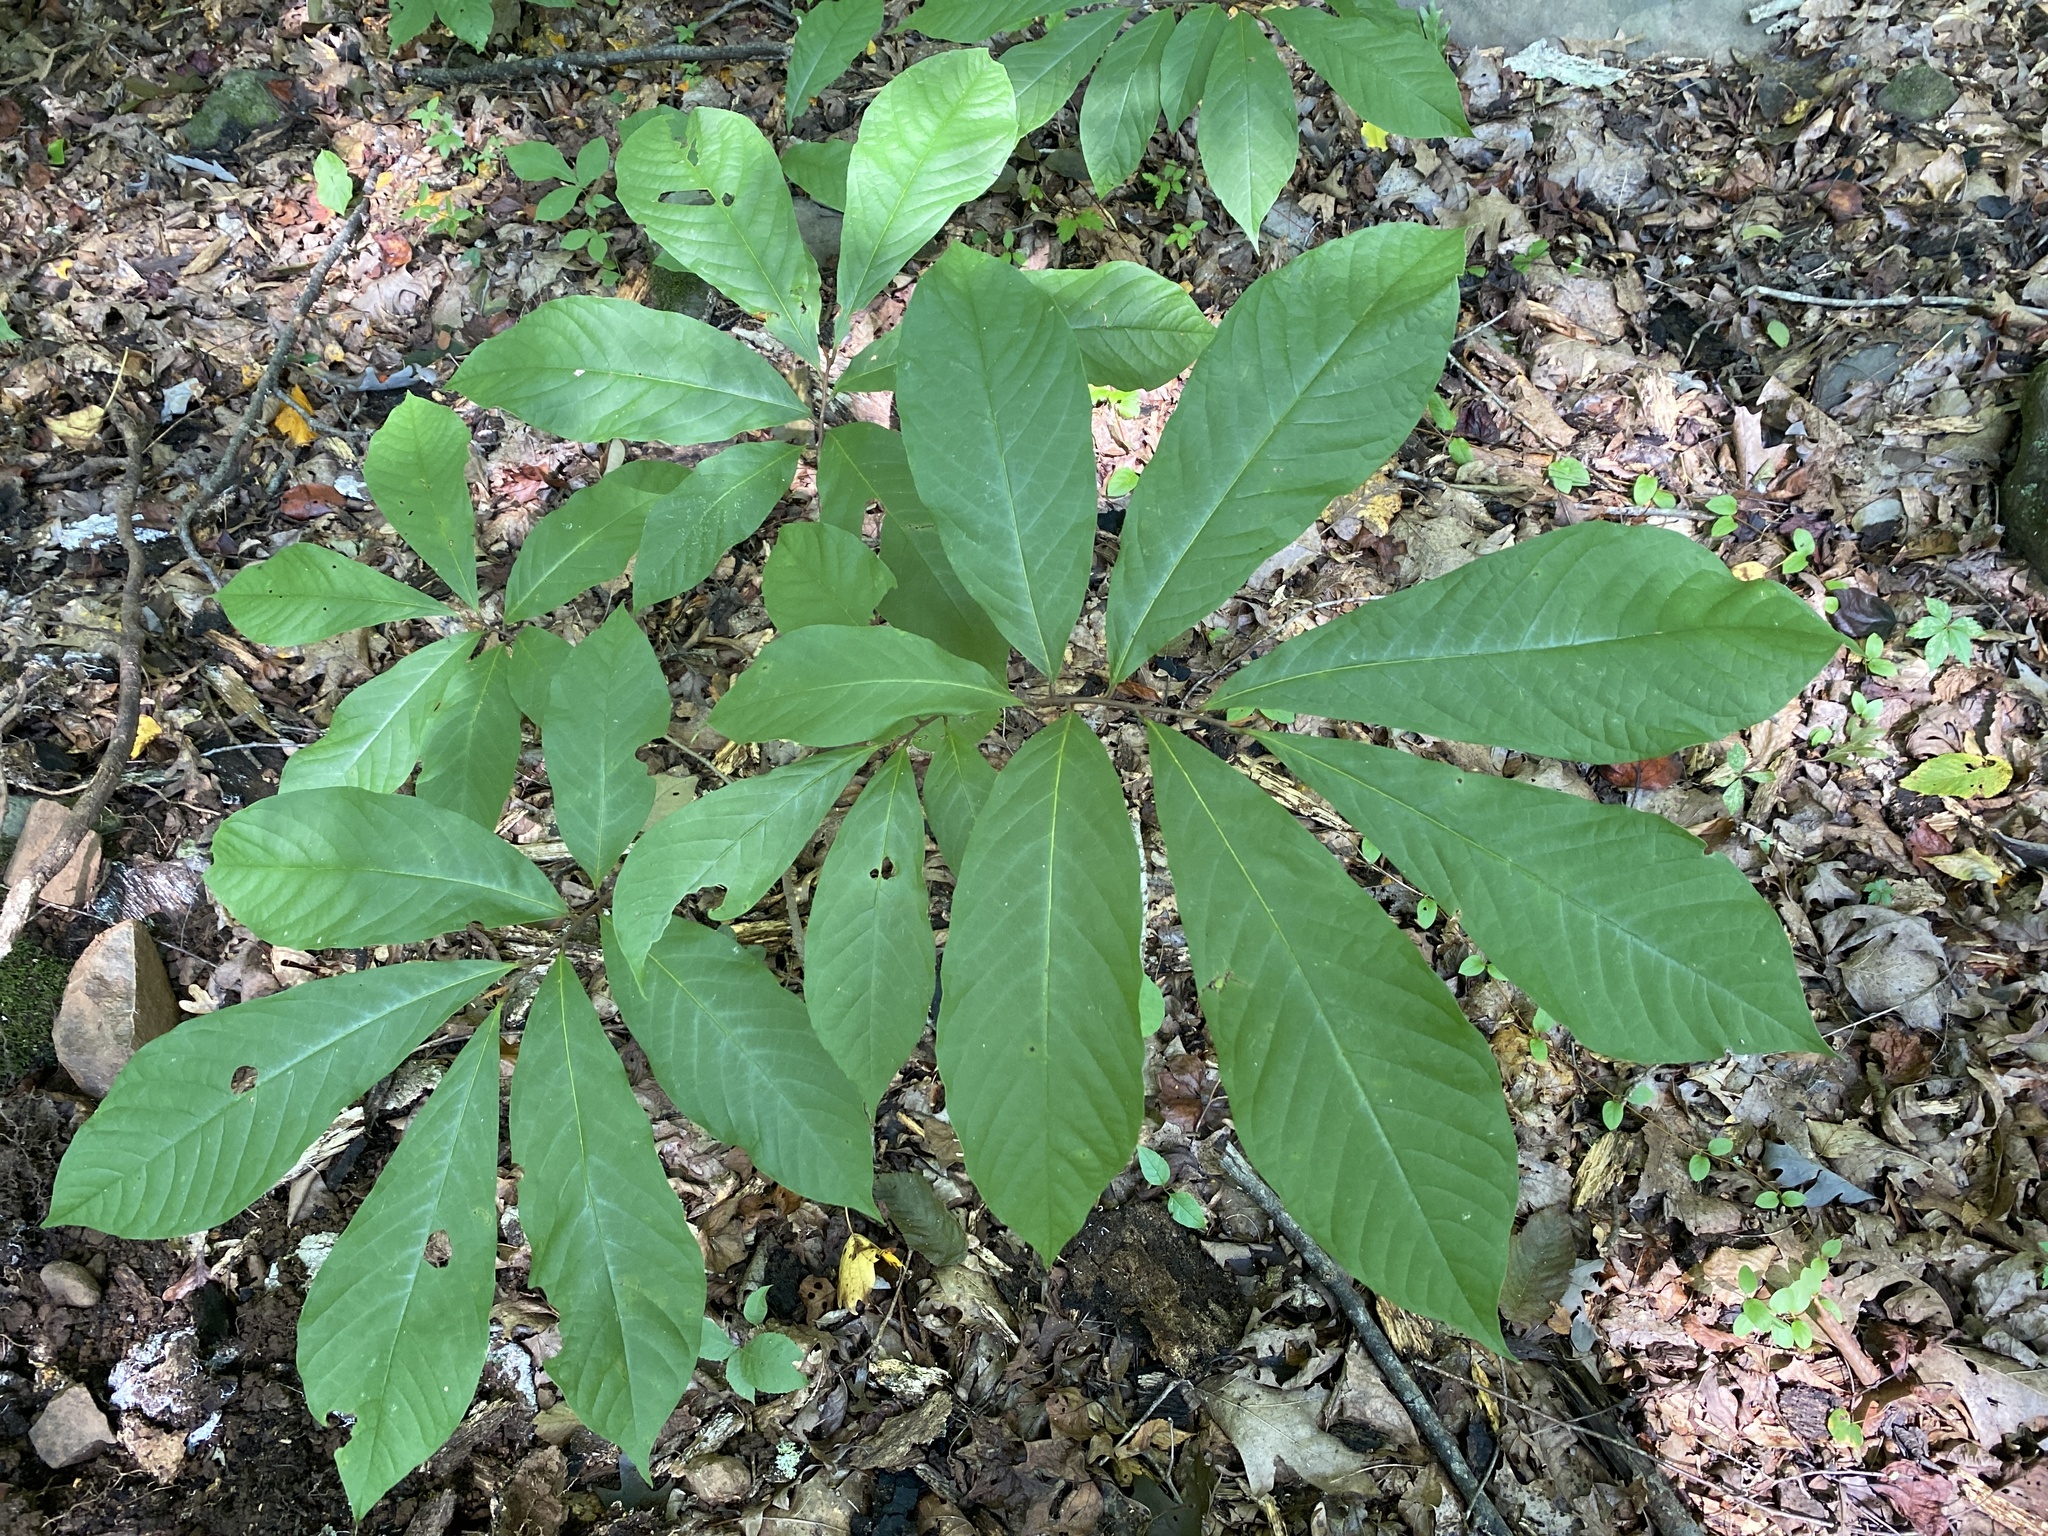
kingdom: Plantae
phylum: Tracheophyta
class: Magnoliopsida
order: Magnoliales
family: Annonaceae
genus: Asimina
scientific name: Asimina triloba
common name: Dog-banana
